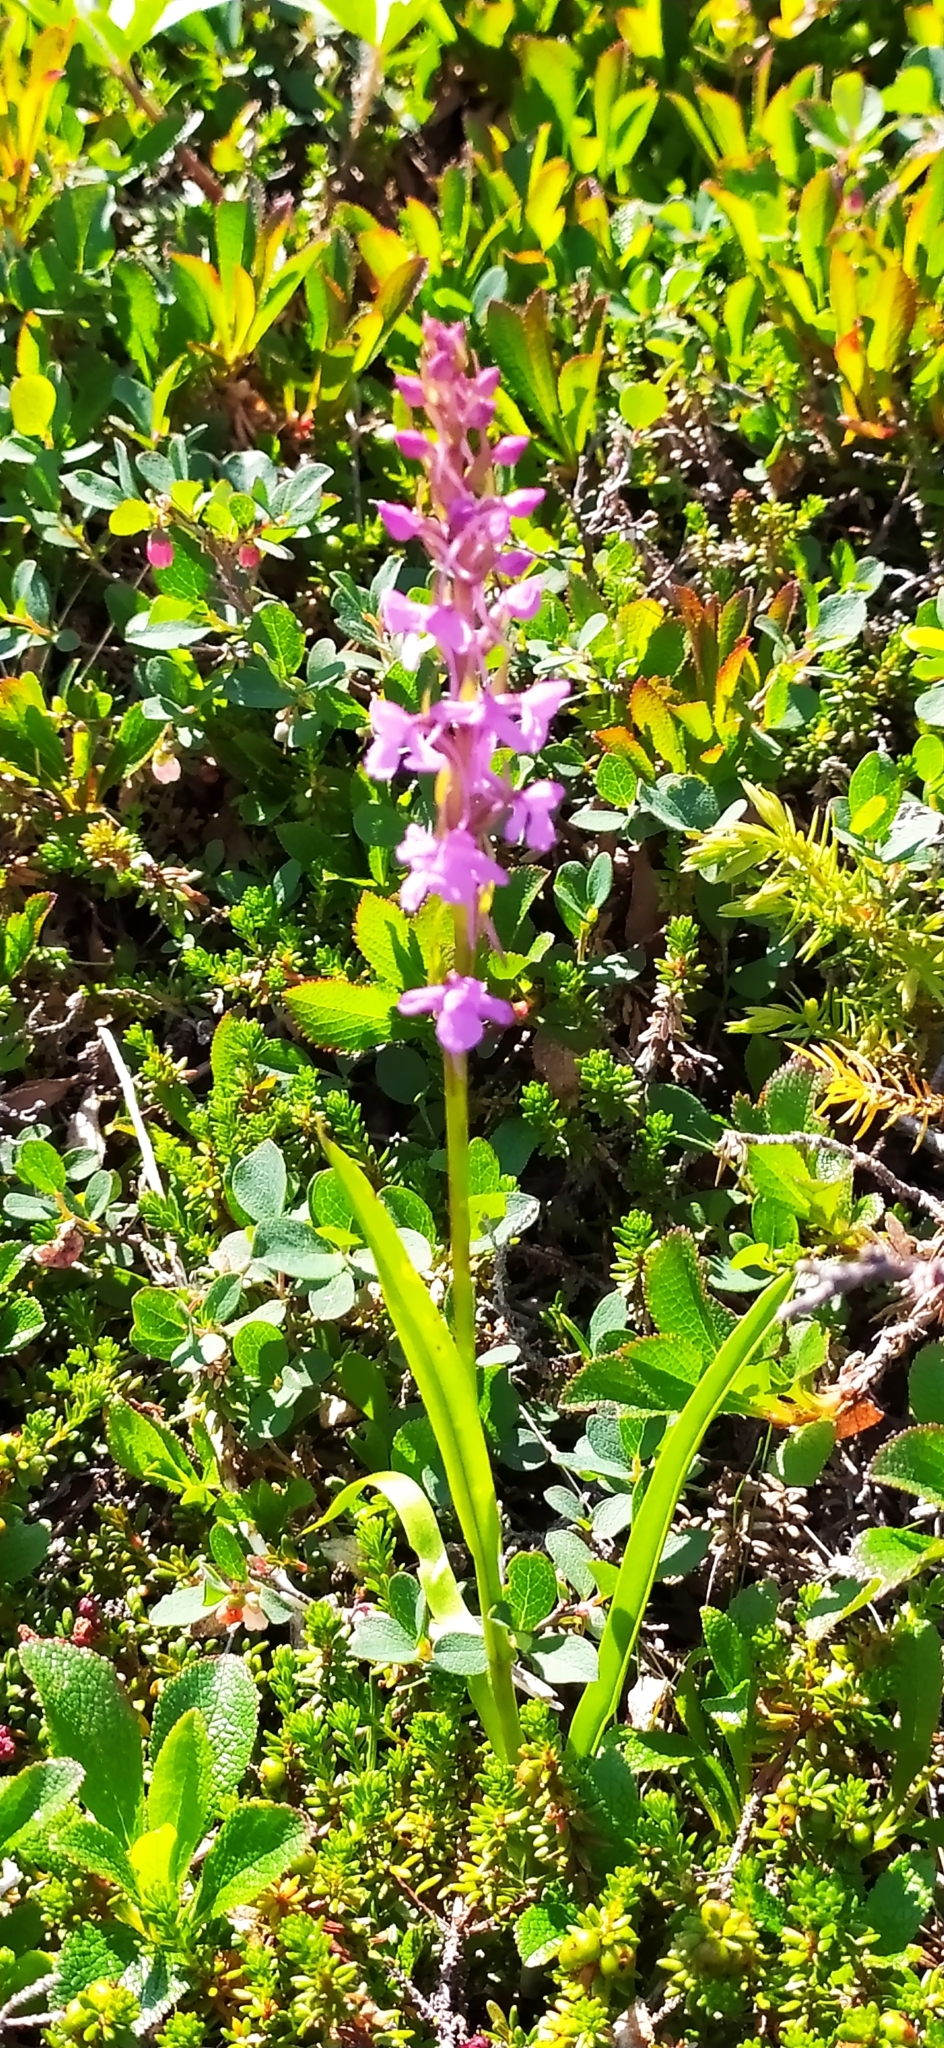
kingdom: Plantae
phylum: Tracheophyta
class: Liliopsida
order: Asparagales
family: Orchidaceae
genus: Gymnadenia
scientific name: Gymnadenia conopsea
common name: Fragrant orchid
